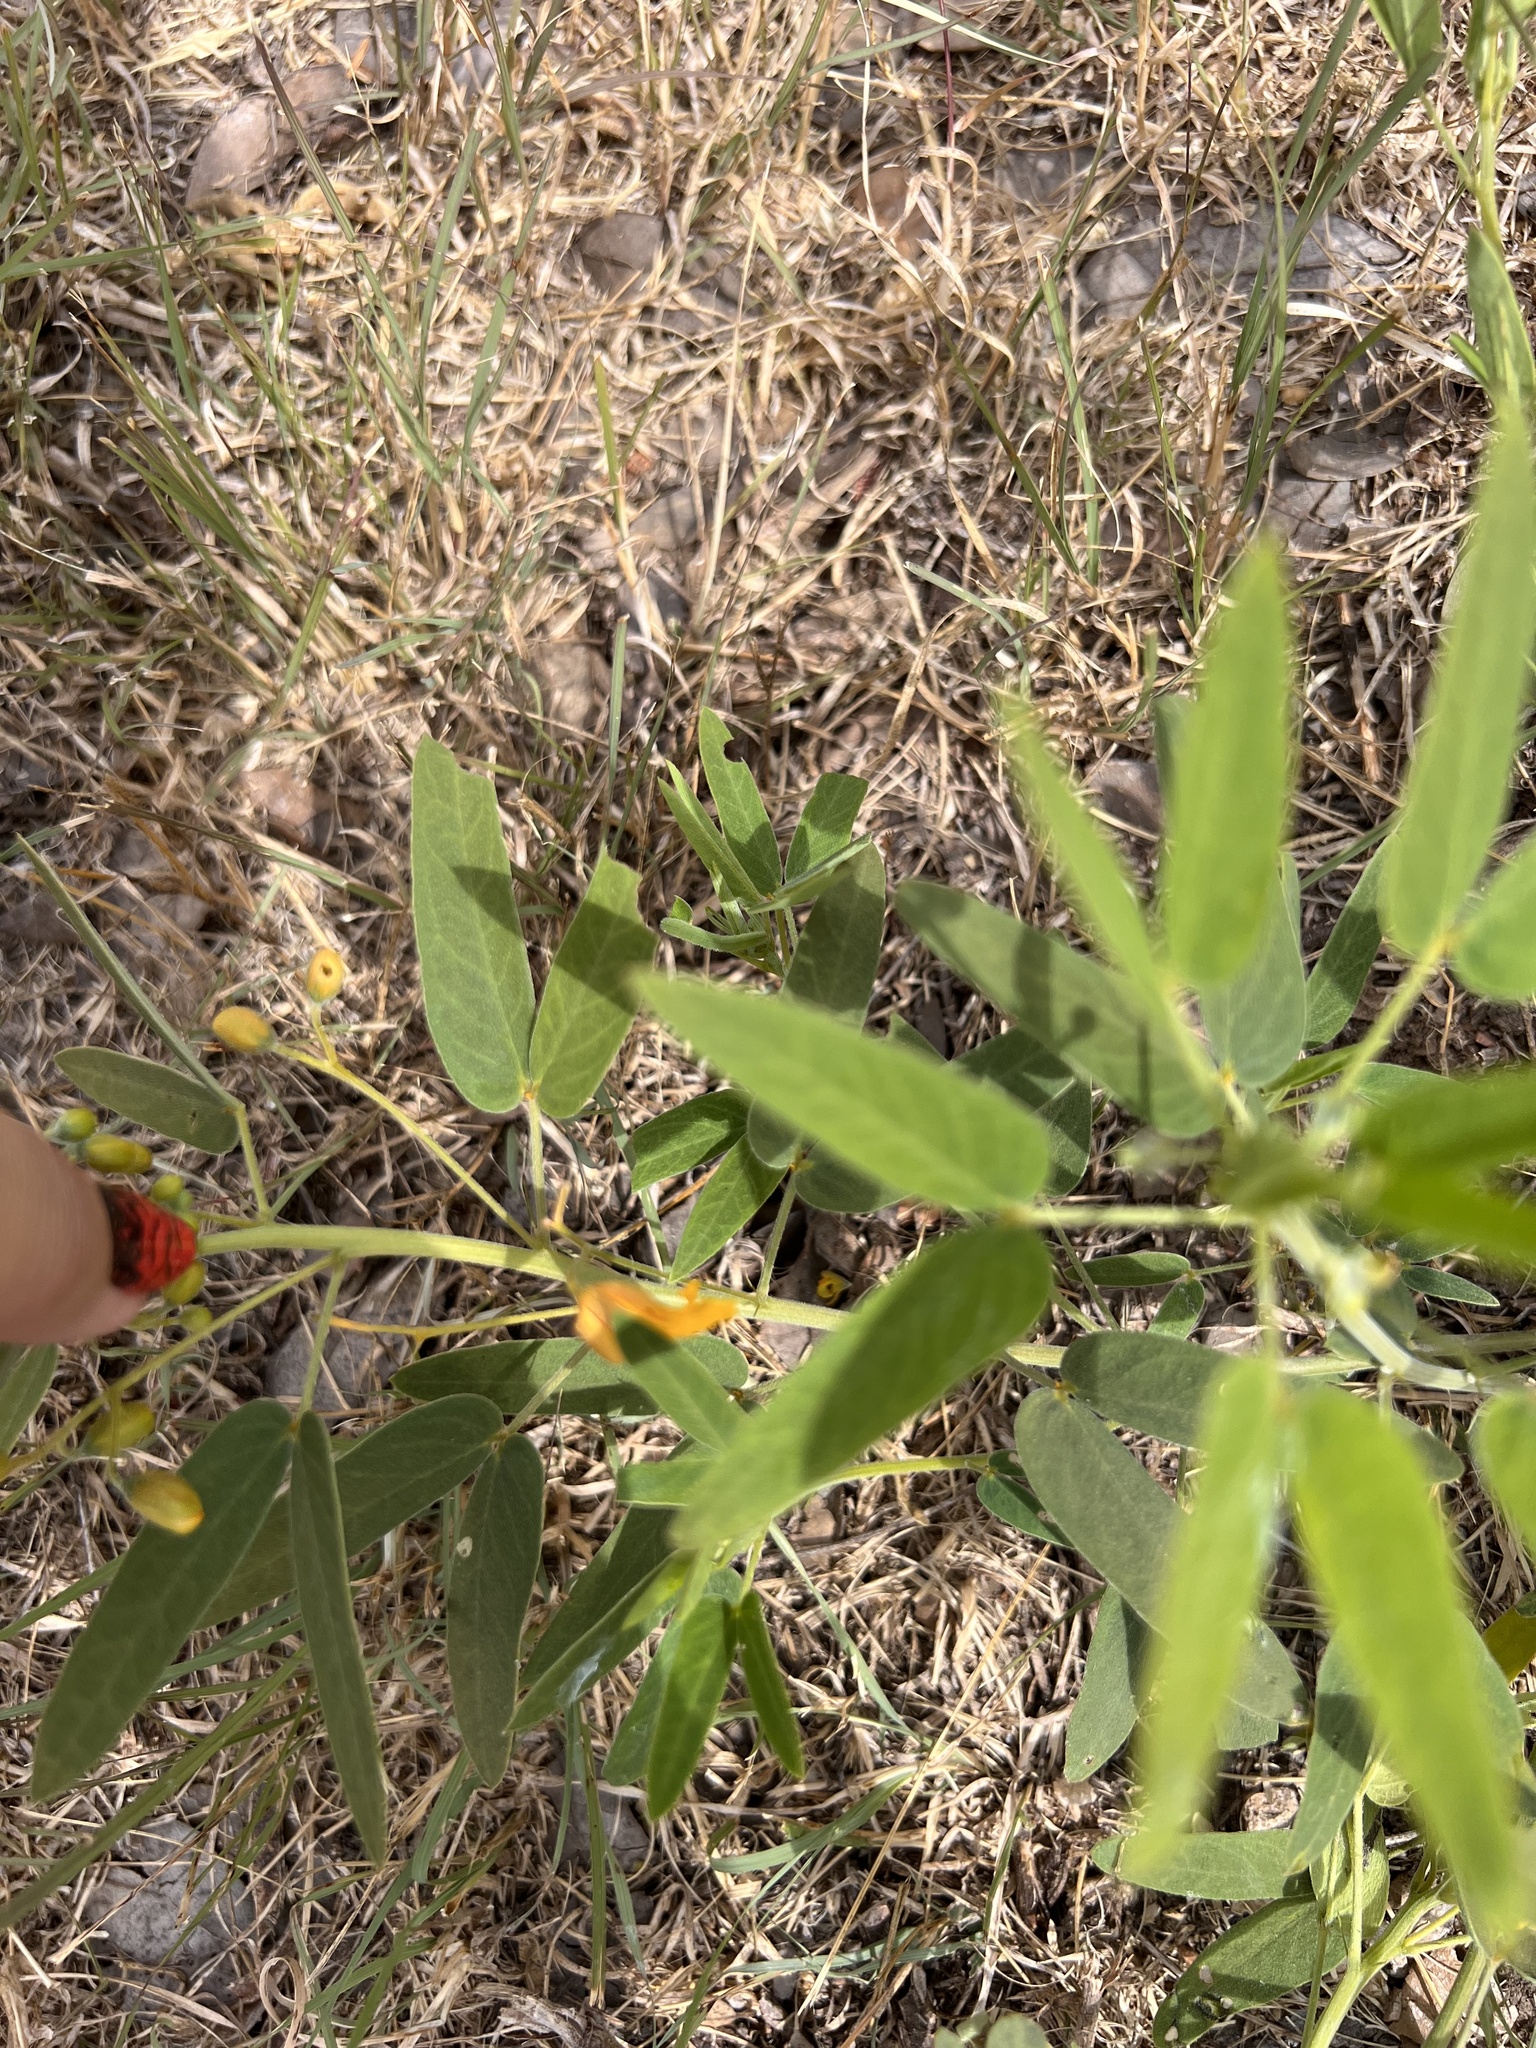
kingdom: Plantae
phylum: Tracheophyta
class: Magnoliopsida
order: Fabales
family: Fabaceae
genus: Senna
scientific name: Senna roemeriana
